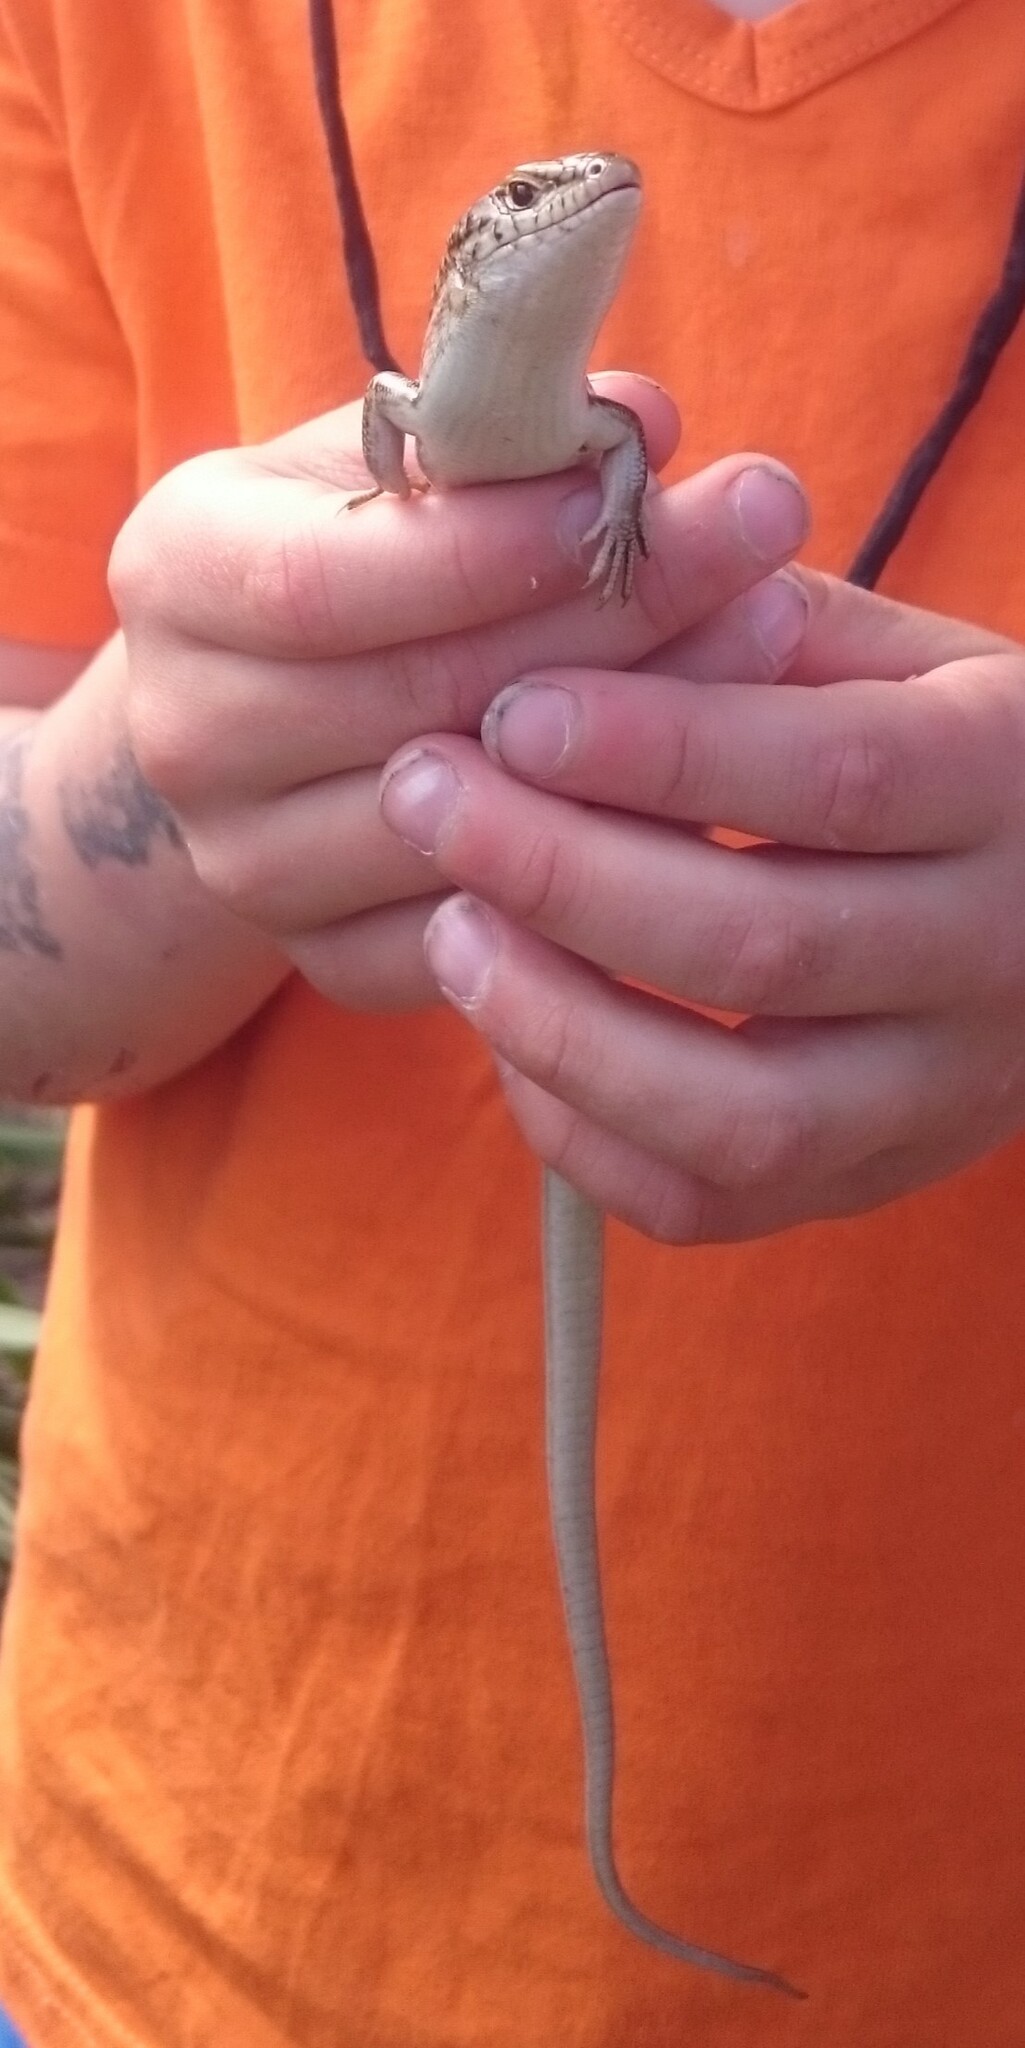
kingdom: Animalia
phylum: Chordata
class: Squamata
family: Scincidae
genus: Ctenotus
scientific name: Ctenotus robustus
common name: Robust ctenotus
